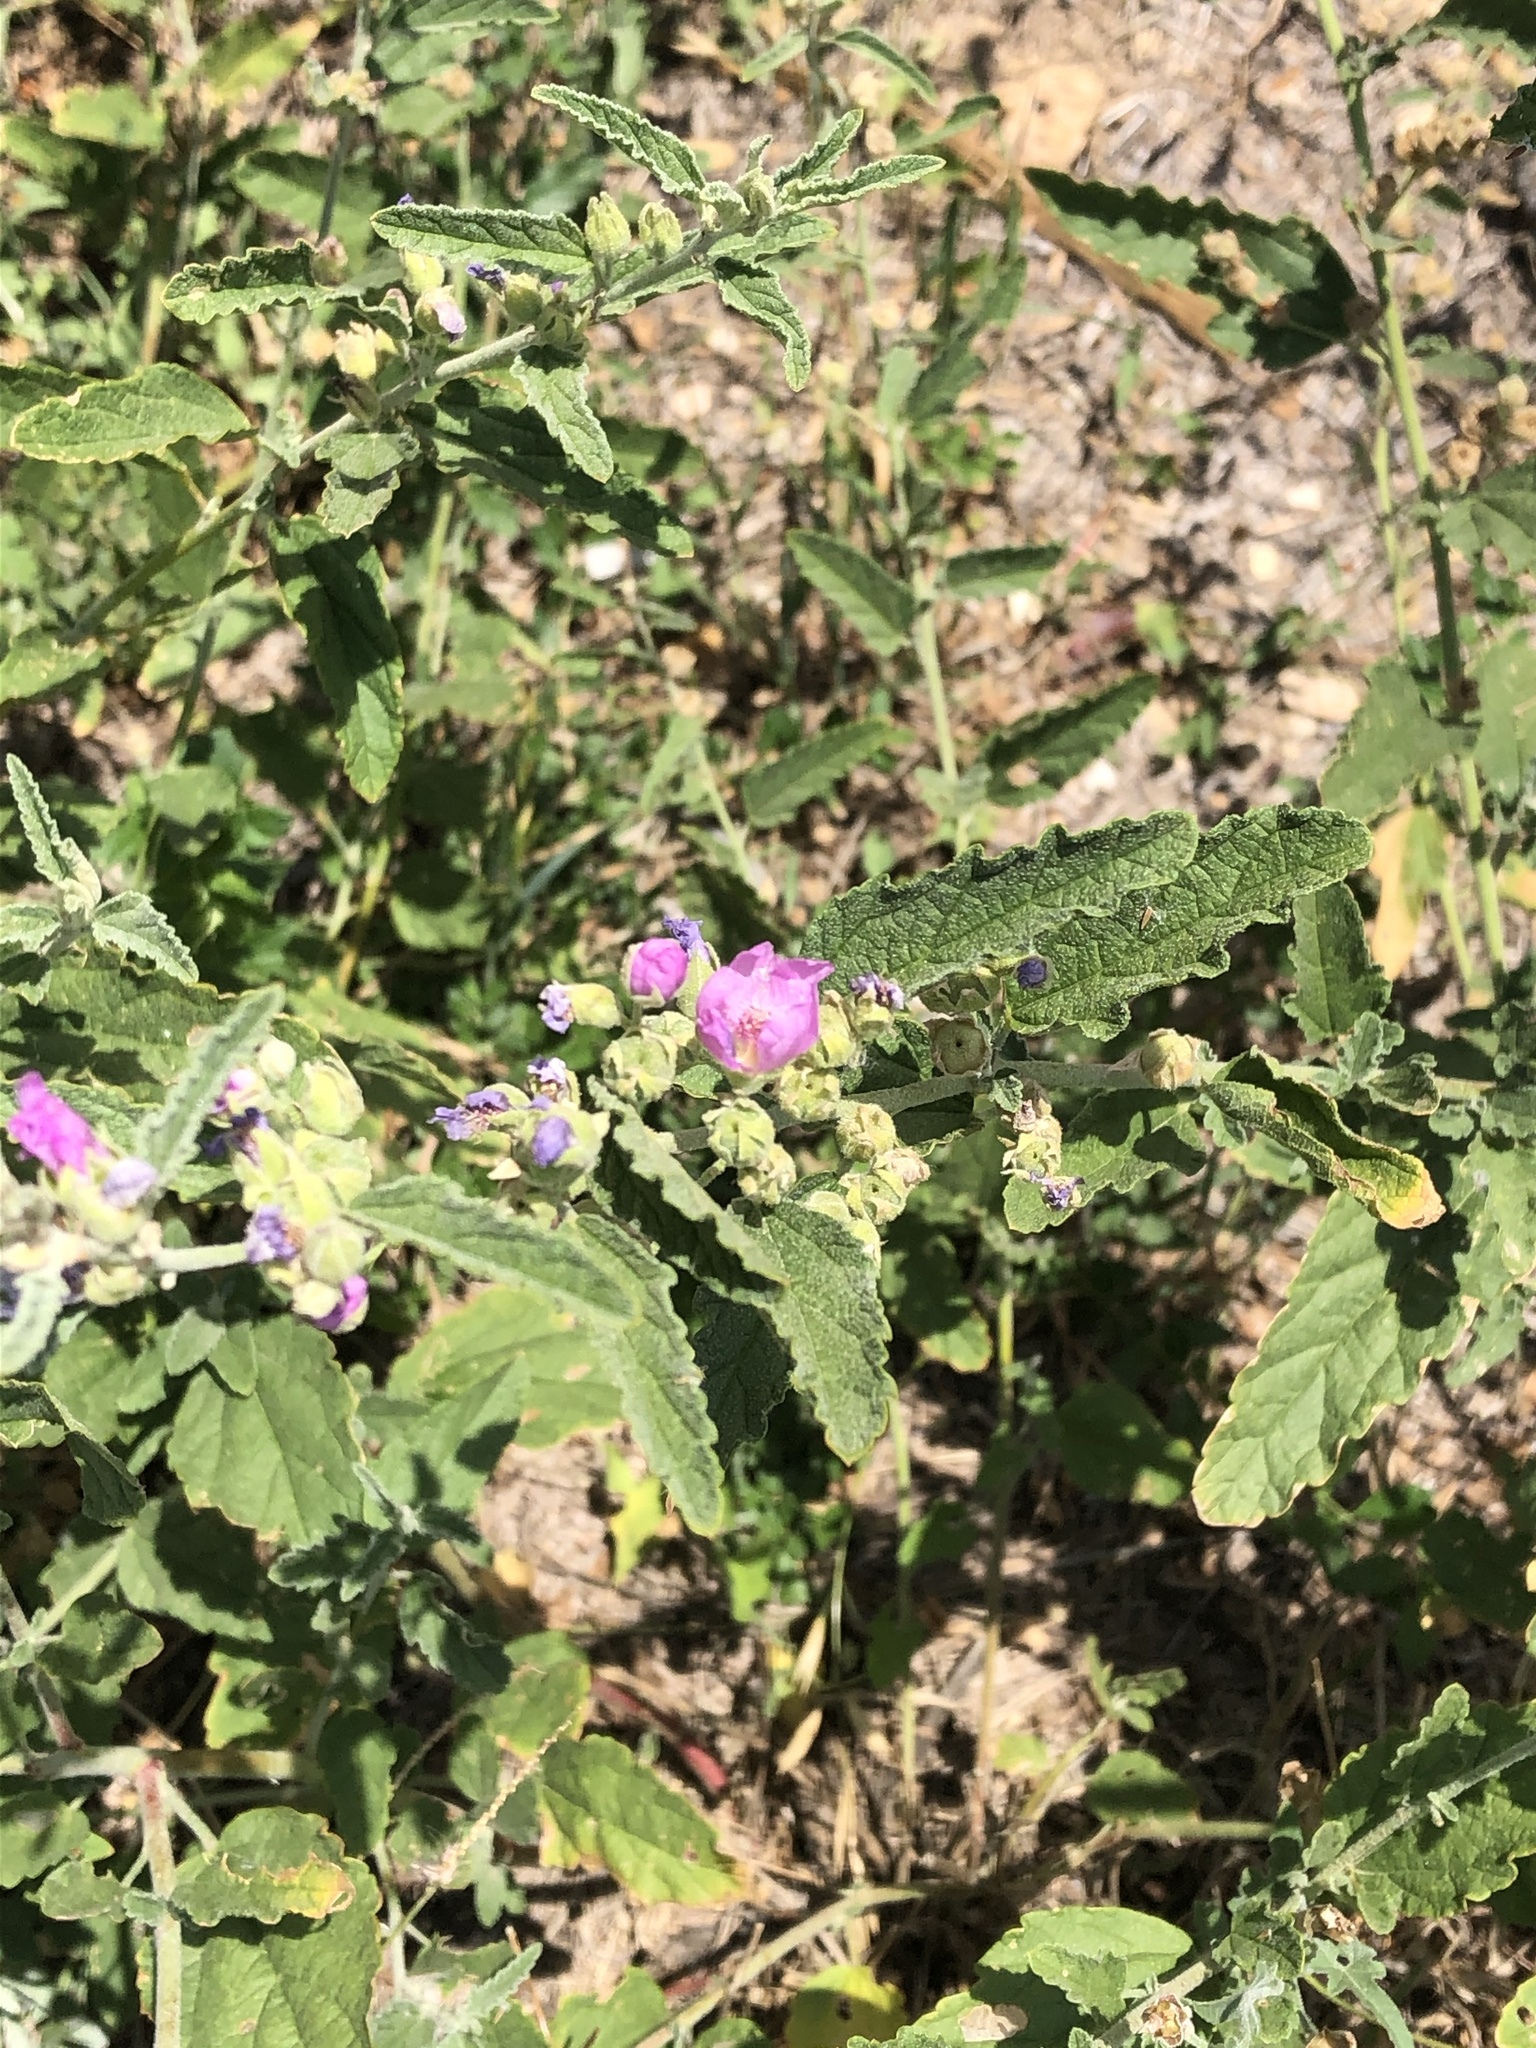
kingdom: Plantae
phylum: Tracheophyta
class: Magnoliopsida
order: Malvales
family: Malvaceae
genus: Sphaeralcea
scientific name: Sphaeralcea angustifolia
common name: Copper globe-mallow
